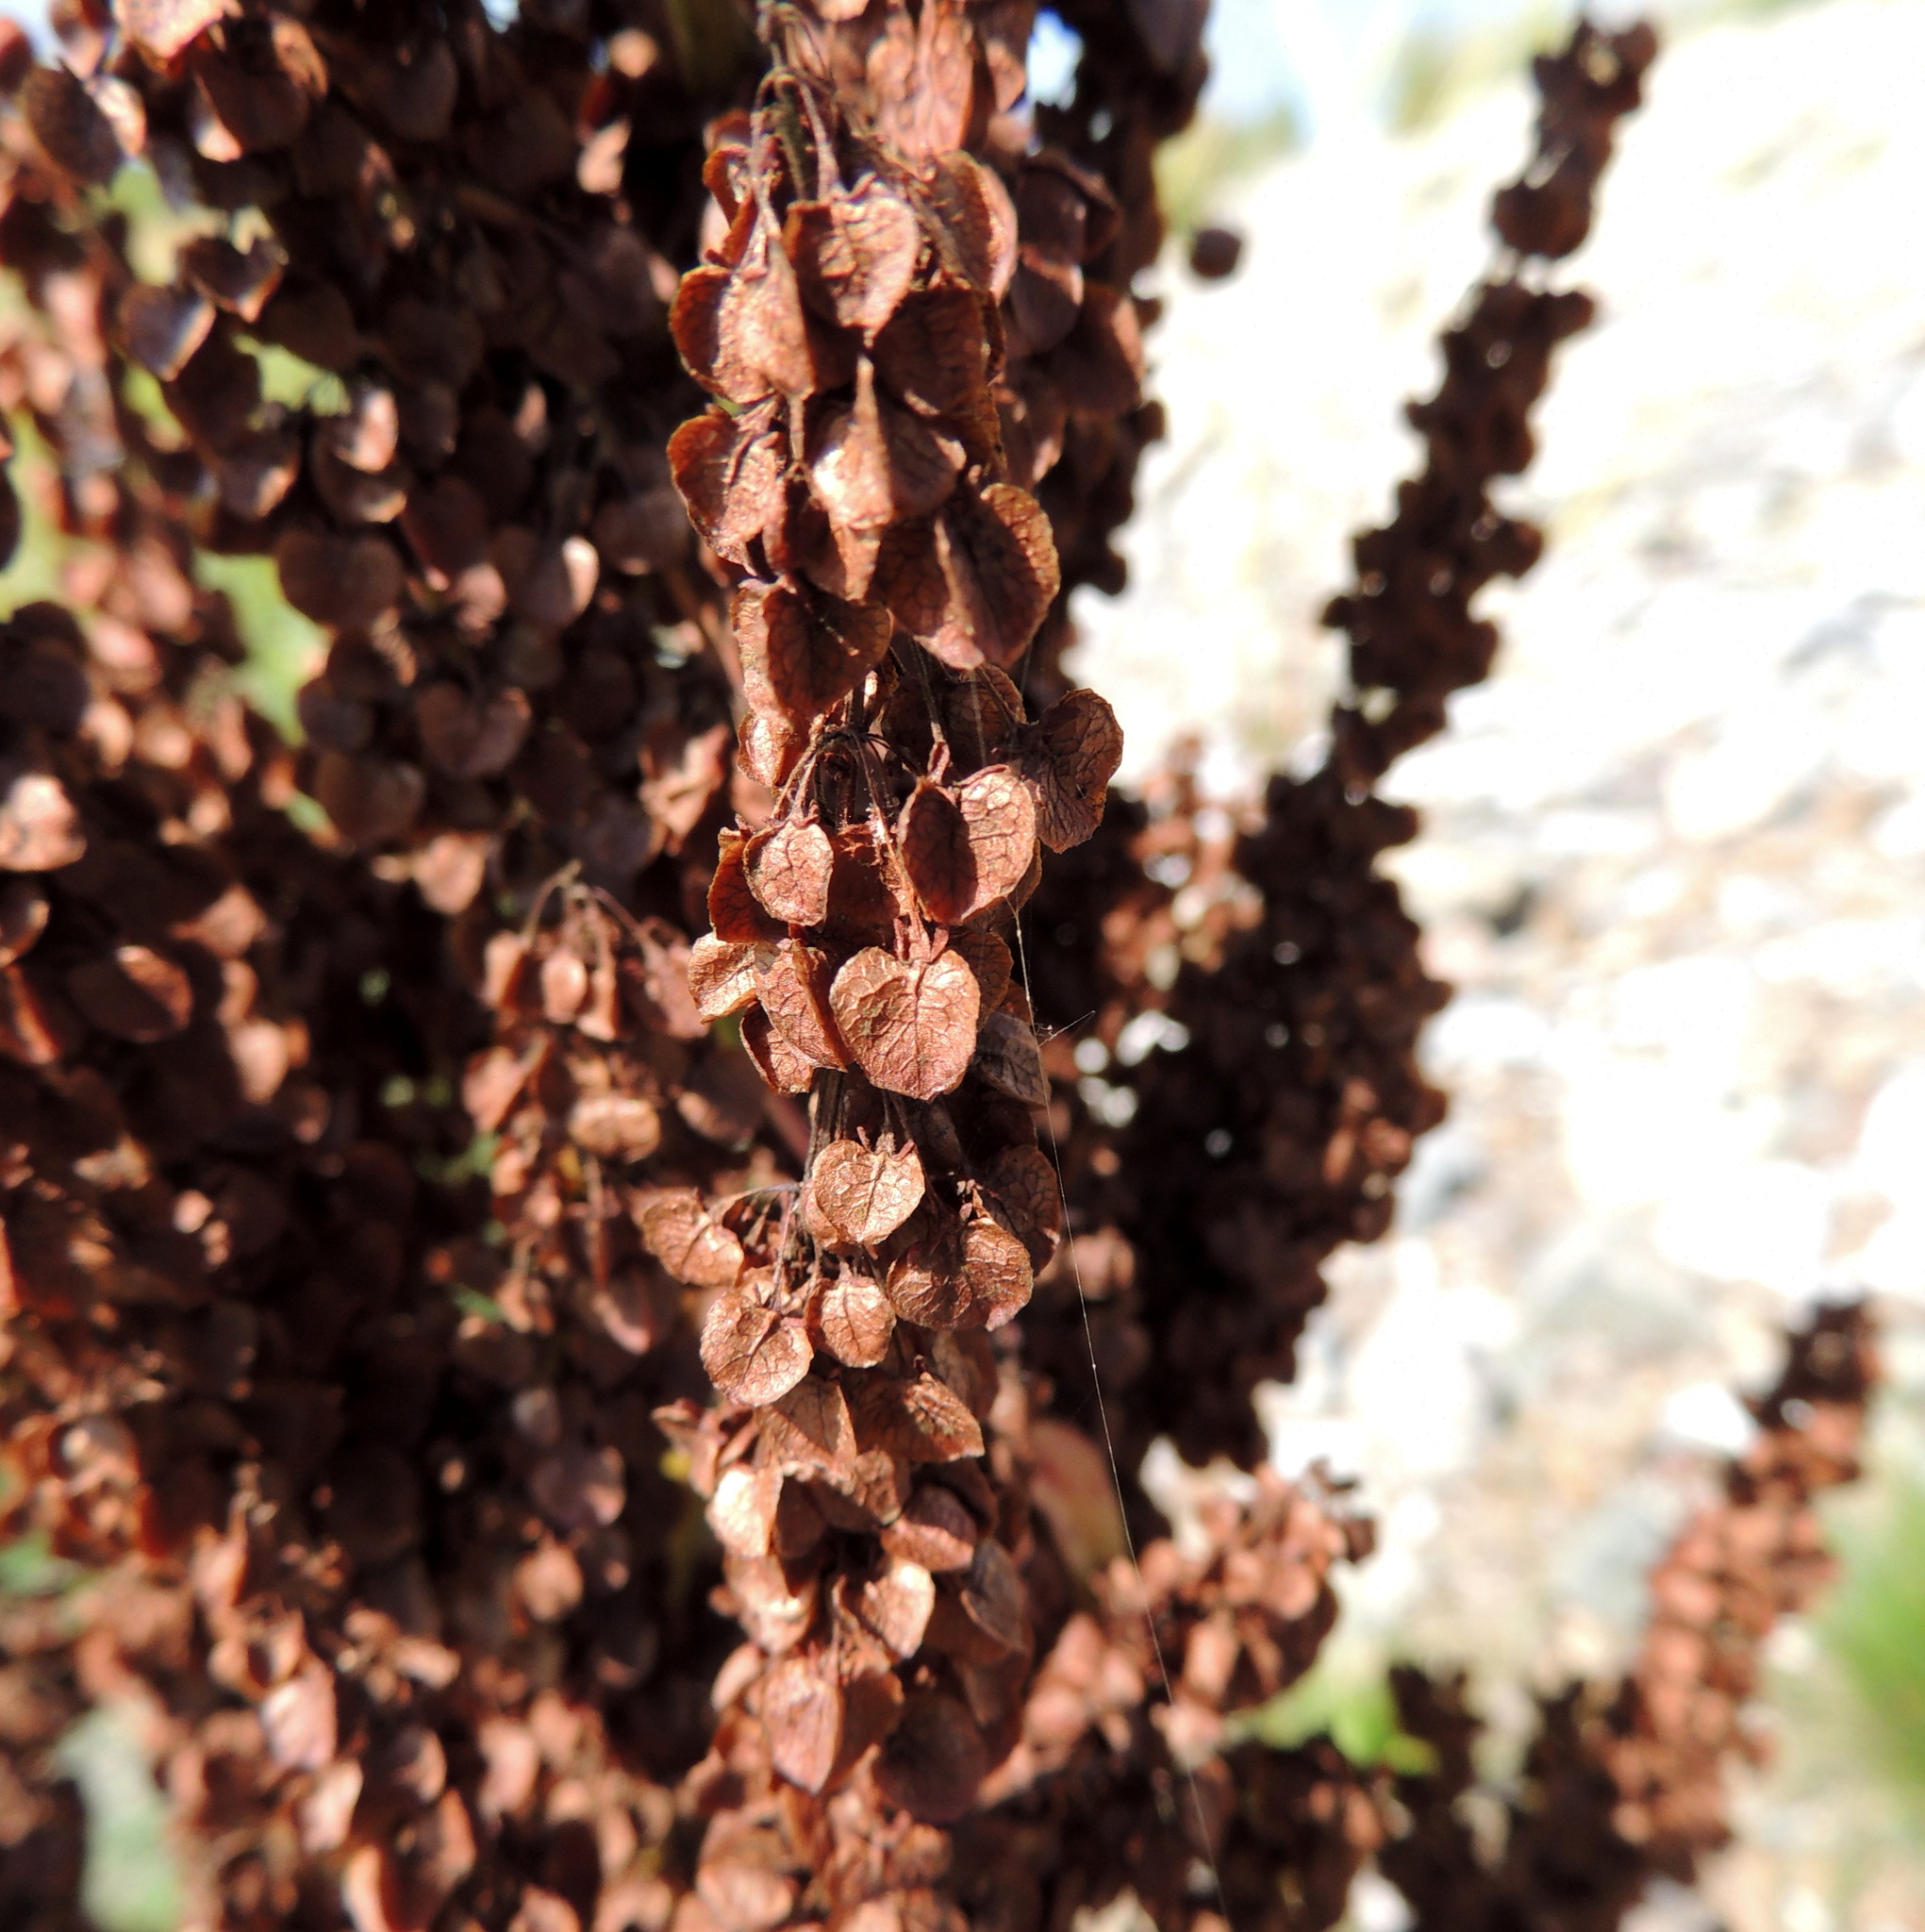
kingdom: Plantae
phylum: Tracheophyta
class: Magnoliopsida
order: Caryophyllales
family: Polygonaceae
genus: Rumex
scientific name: Rumex aquaticus
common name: Scottish dock
